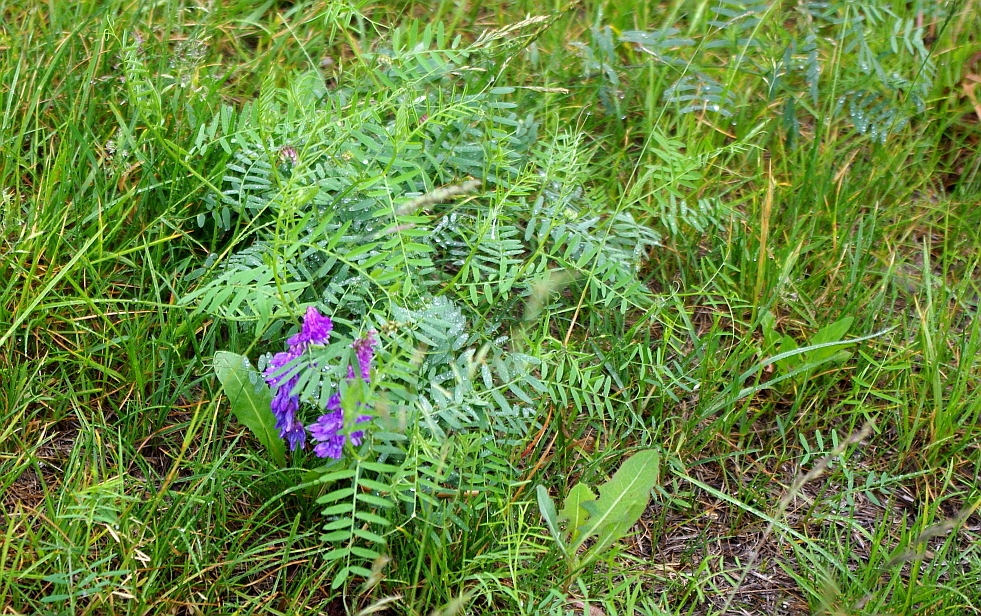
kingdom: Plantae
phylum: Tracheophyta
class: Magnoliopsida
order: Fabales
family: Fabaceae
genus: Vicia
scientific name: Vicia cracca
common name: Bird vetch
